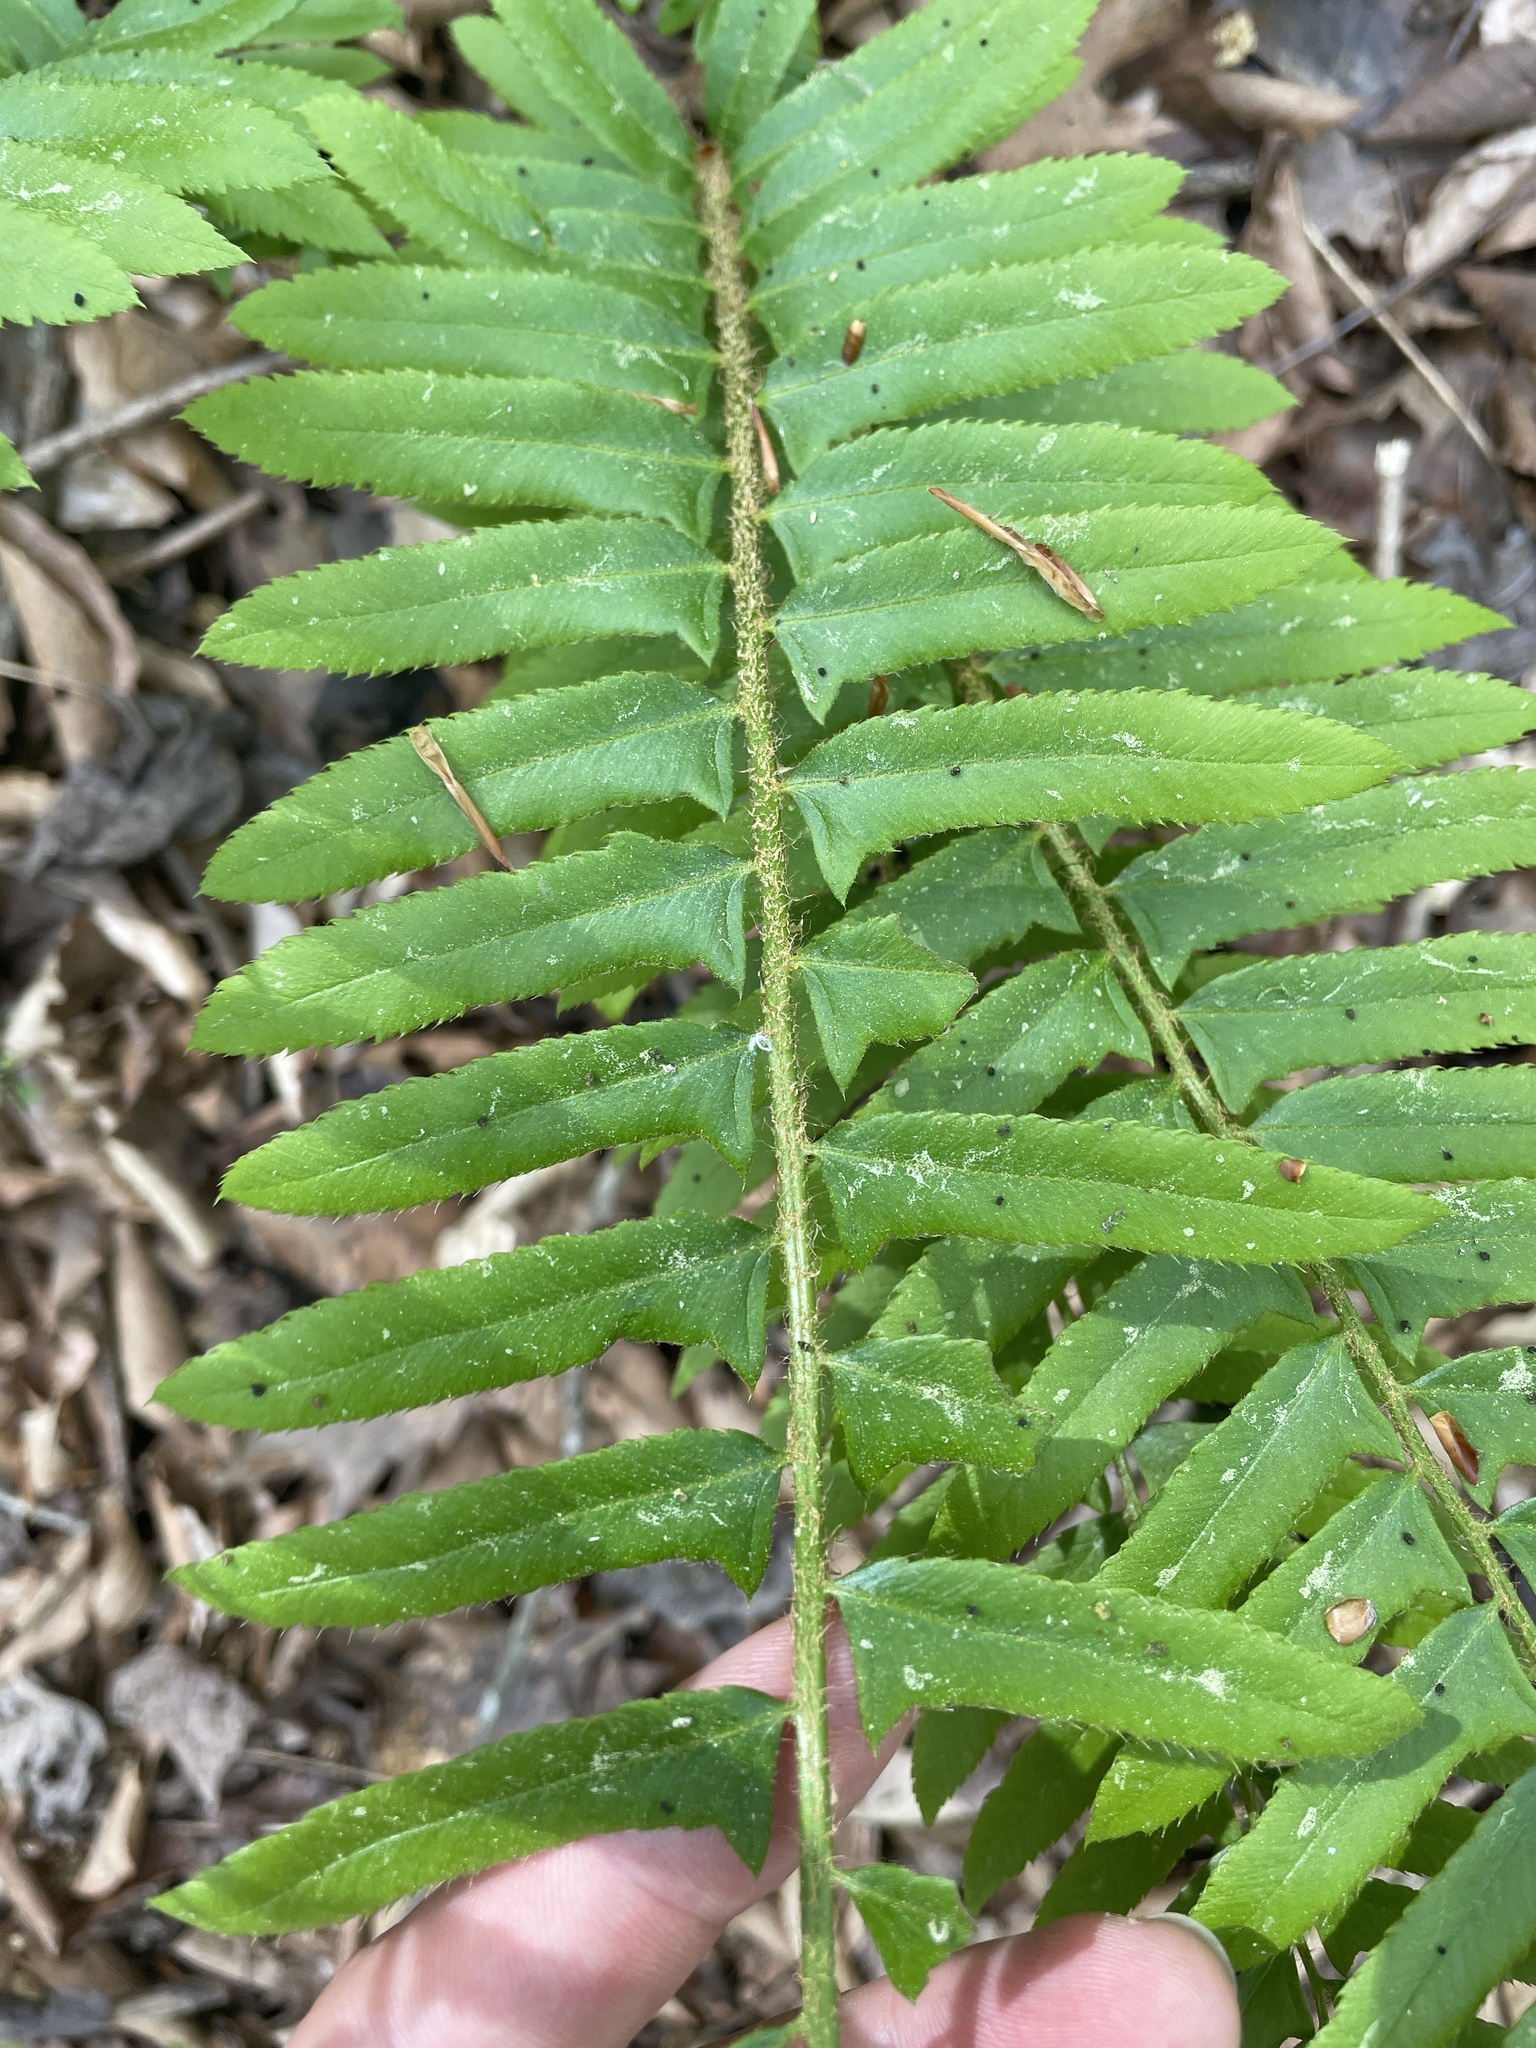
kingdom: Plantae
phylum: Tracheophyta
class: Polypodiopsida
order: Polypodiales
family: Dryopteridaceae
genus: Polystichum
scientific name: Polystichum acrostichoides
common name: Christmas fern
